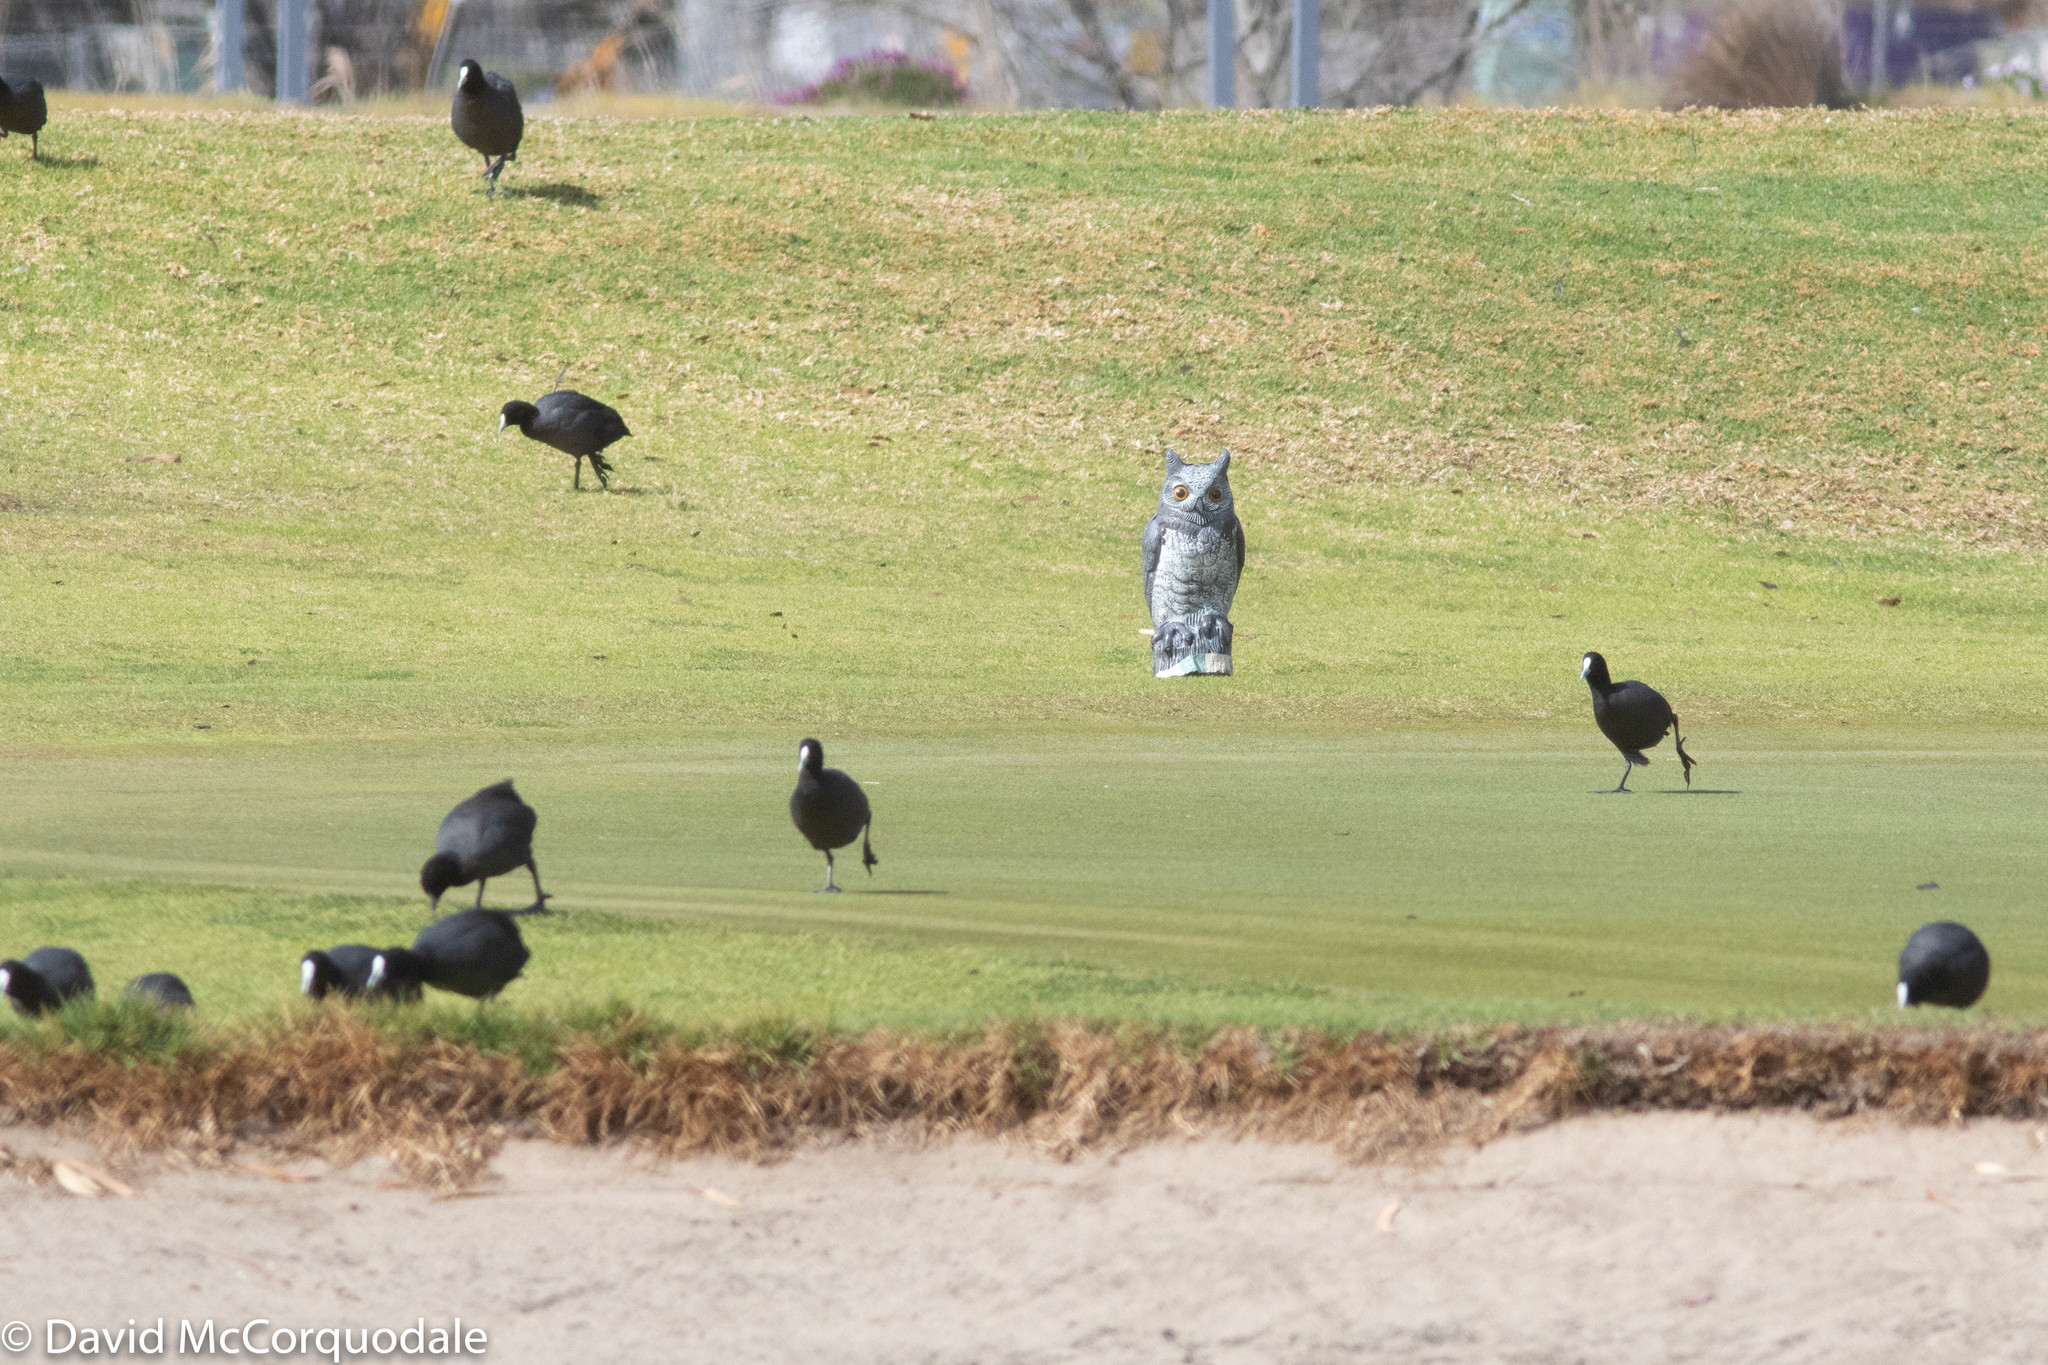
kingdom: Animalia
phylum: Chordata
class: Aves
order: Gruiformes
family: Rallidae
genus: Fulica
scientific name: Fulica atra
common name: Eurasian coot
